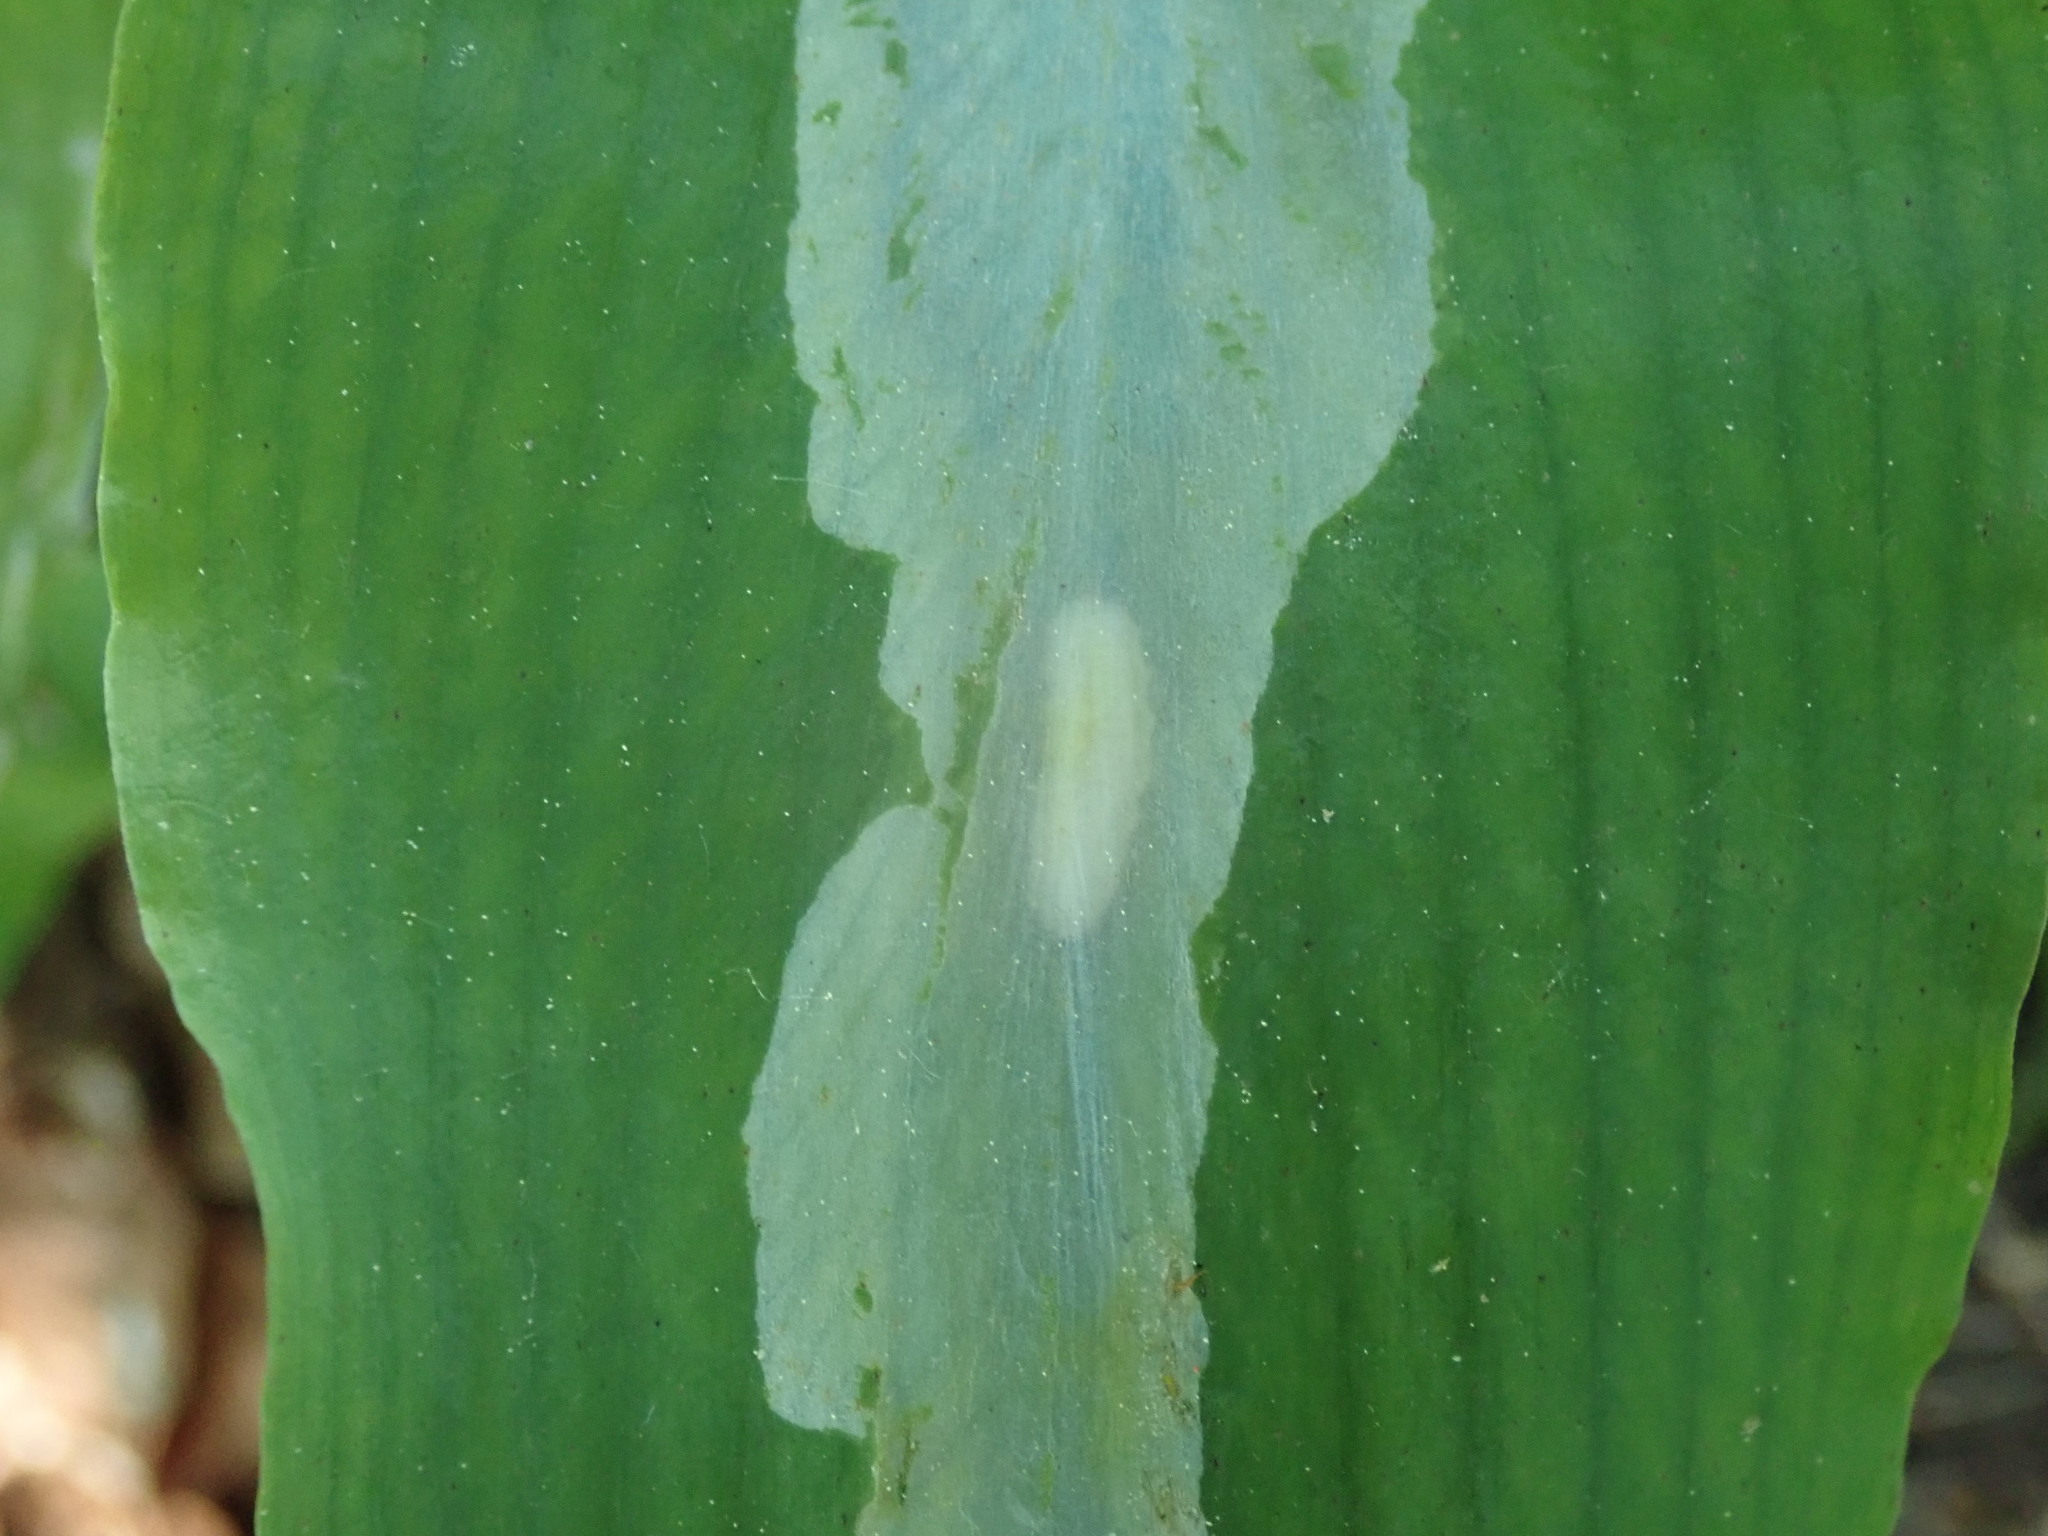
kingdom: Animalia
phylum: Arthropoda
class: Insecta
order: Diptera
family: Syrphidae
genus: Cheilosia
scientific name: Cheilosia fasciata
